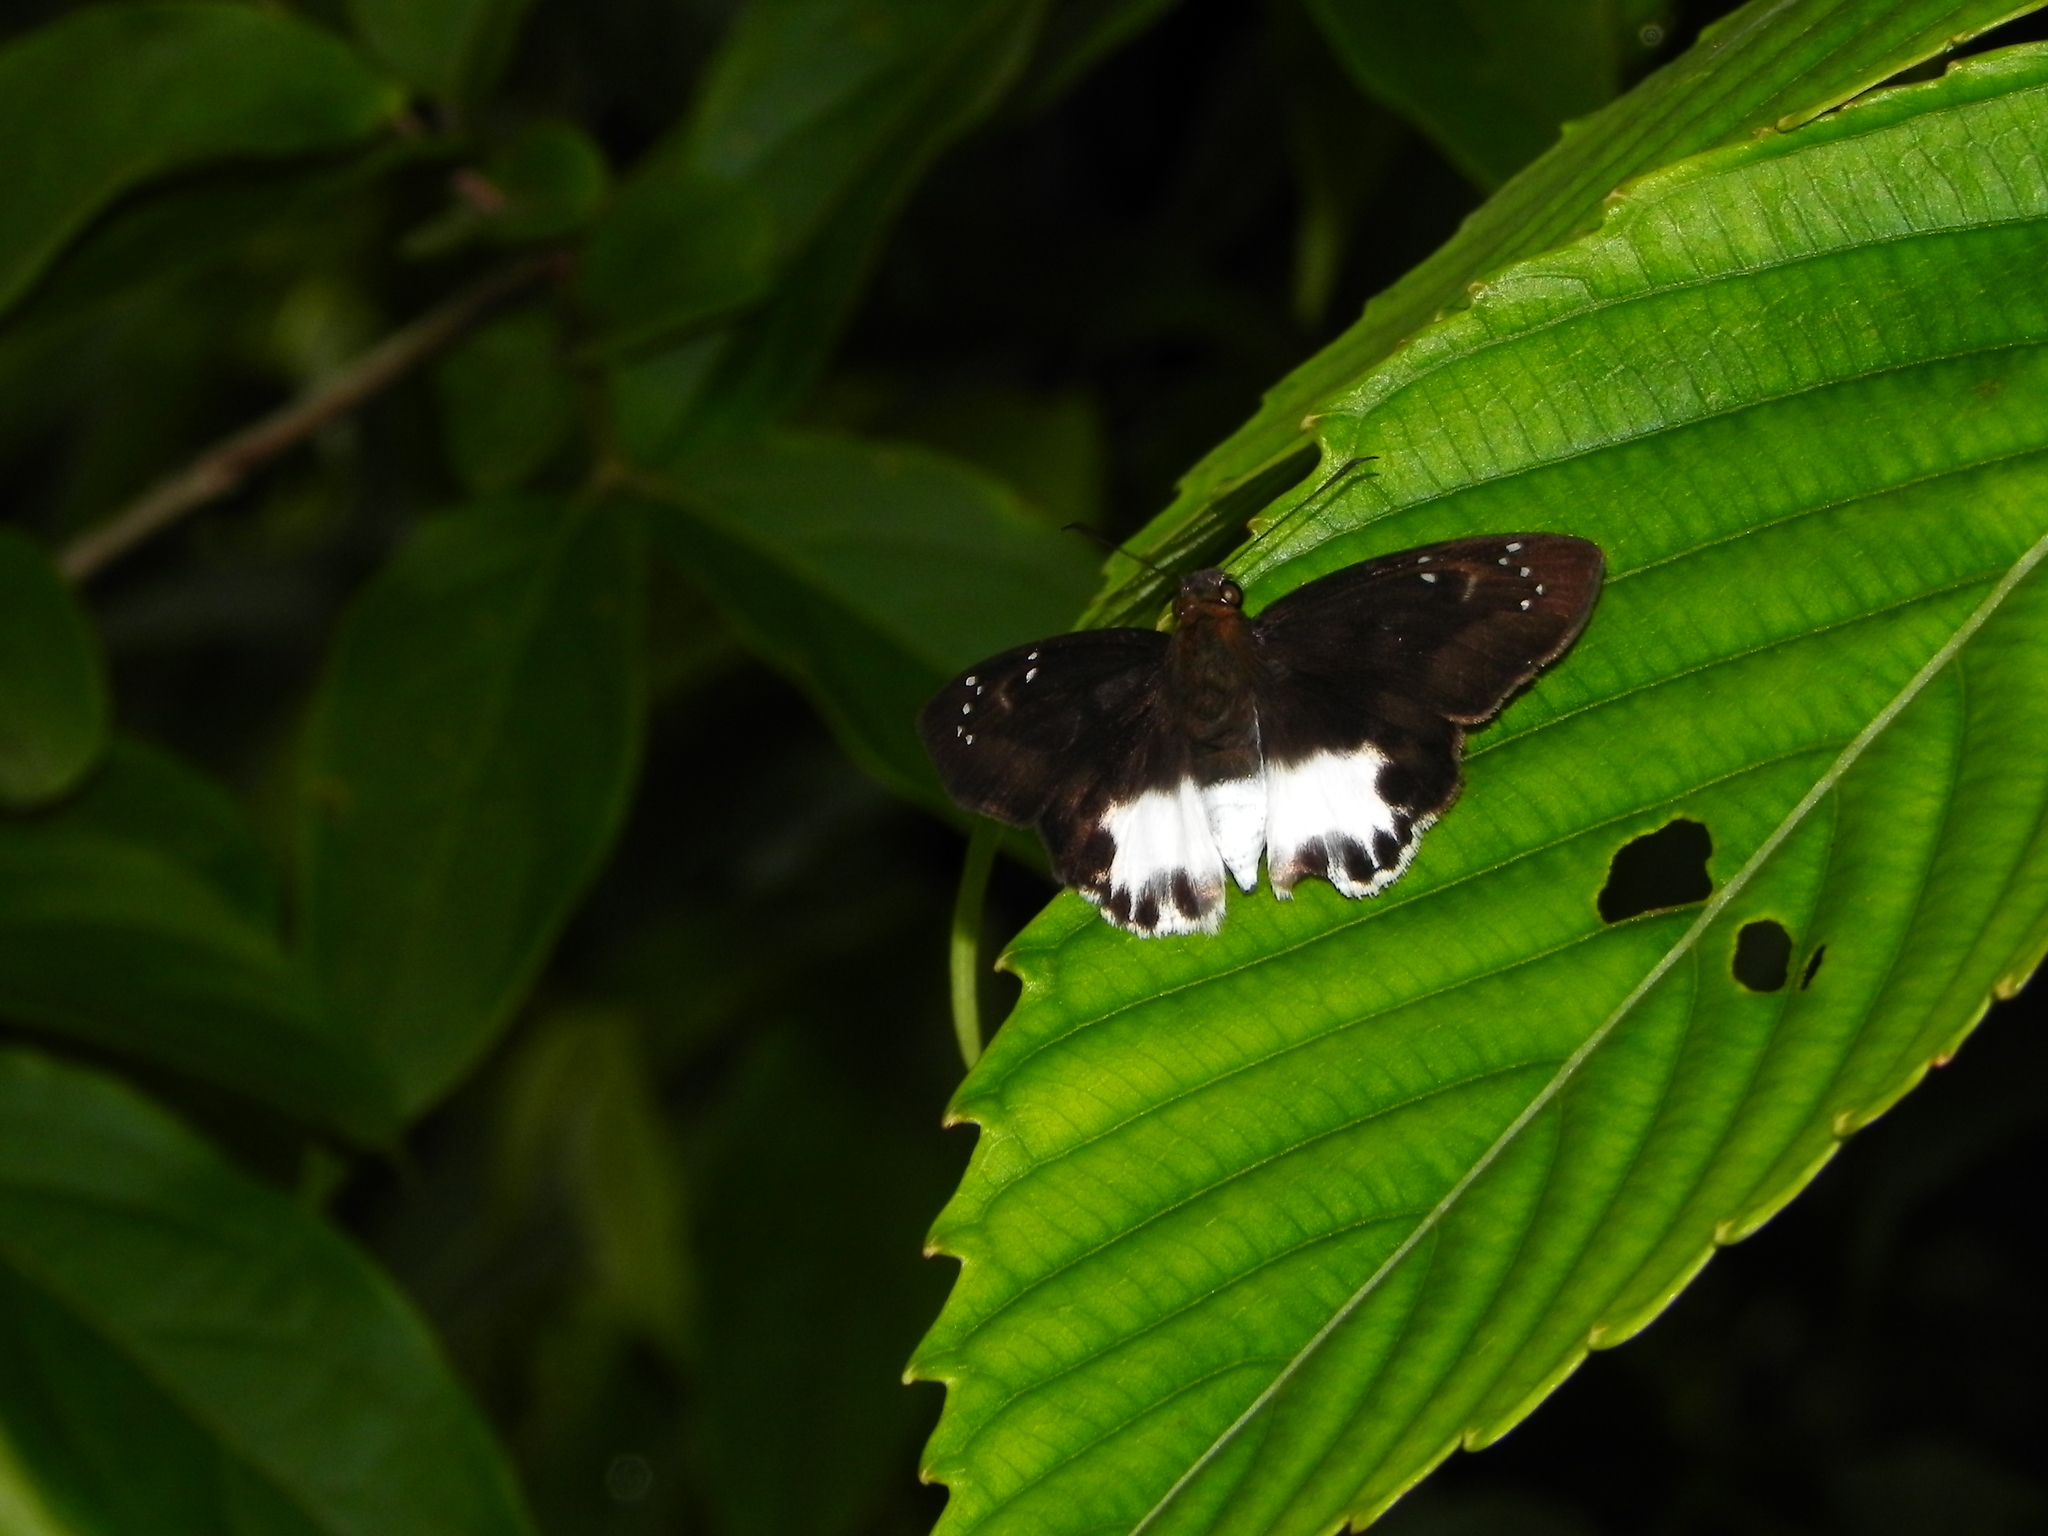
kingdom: Animalia
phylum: Arthropoda
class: Insecta
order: Lepidoptera
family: Hesperiidae
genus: Tagiades
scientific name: Tagiades litigiosa
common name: Water snow flat
